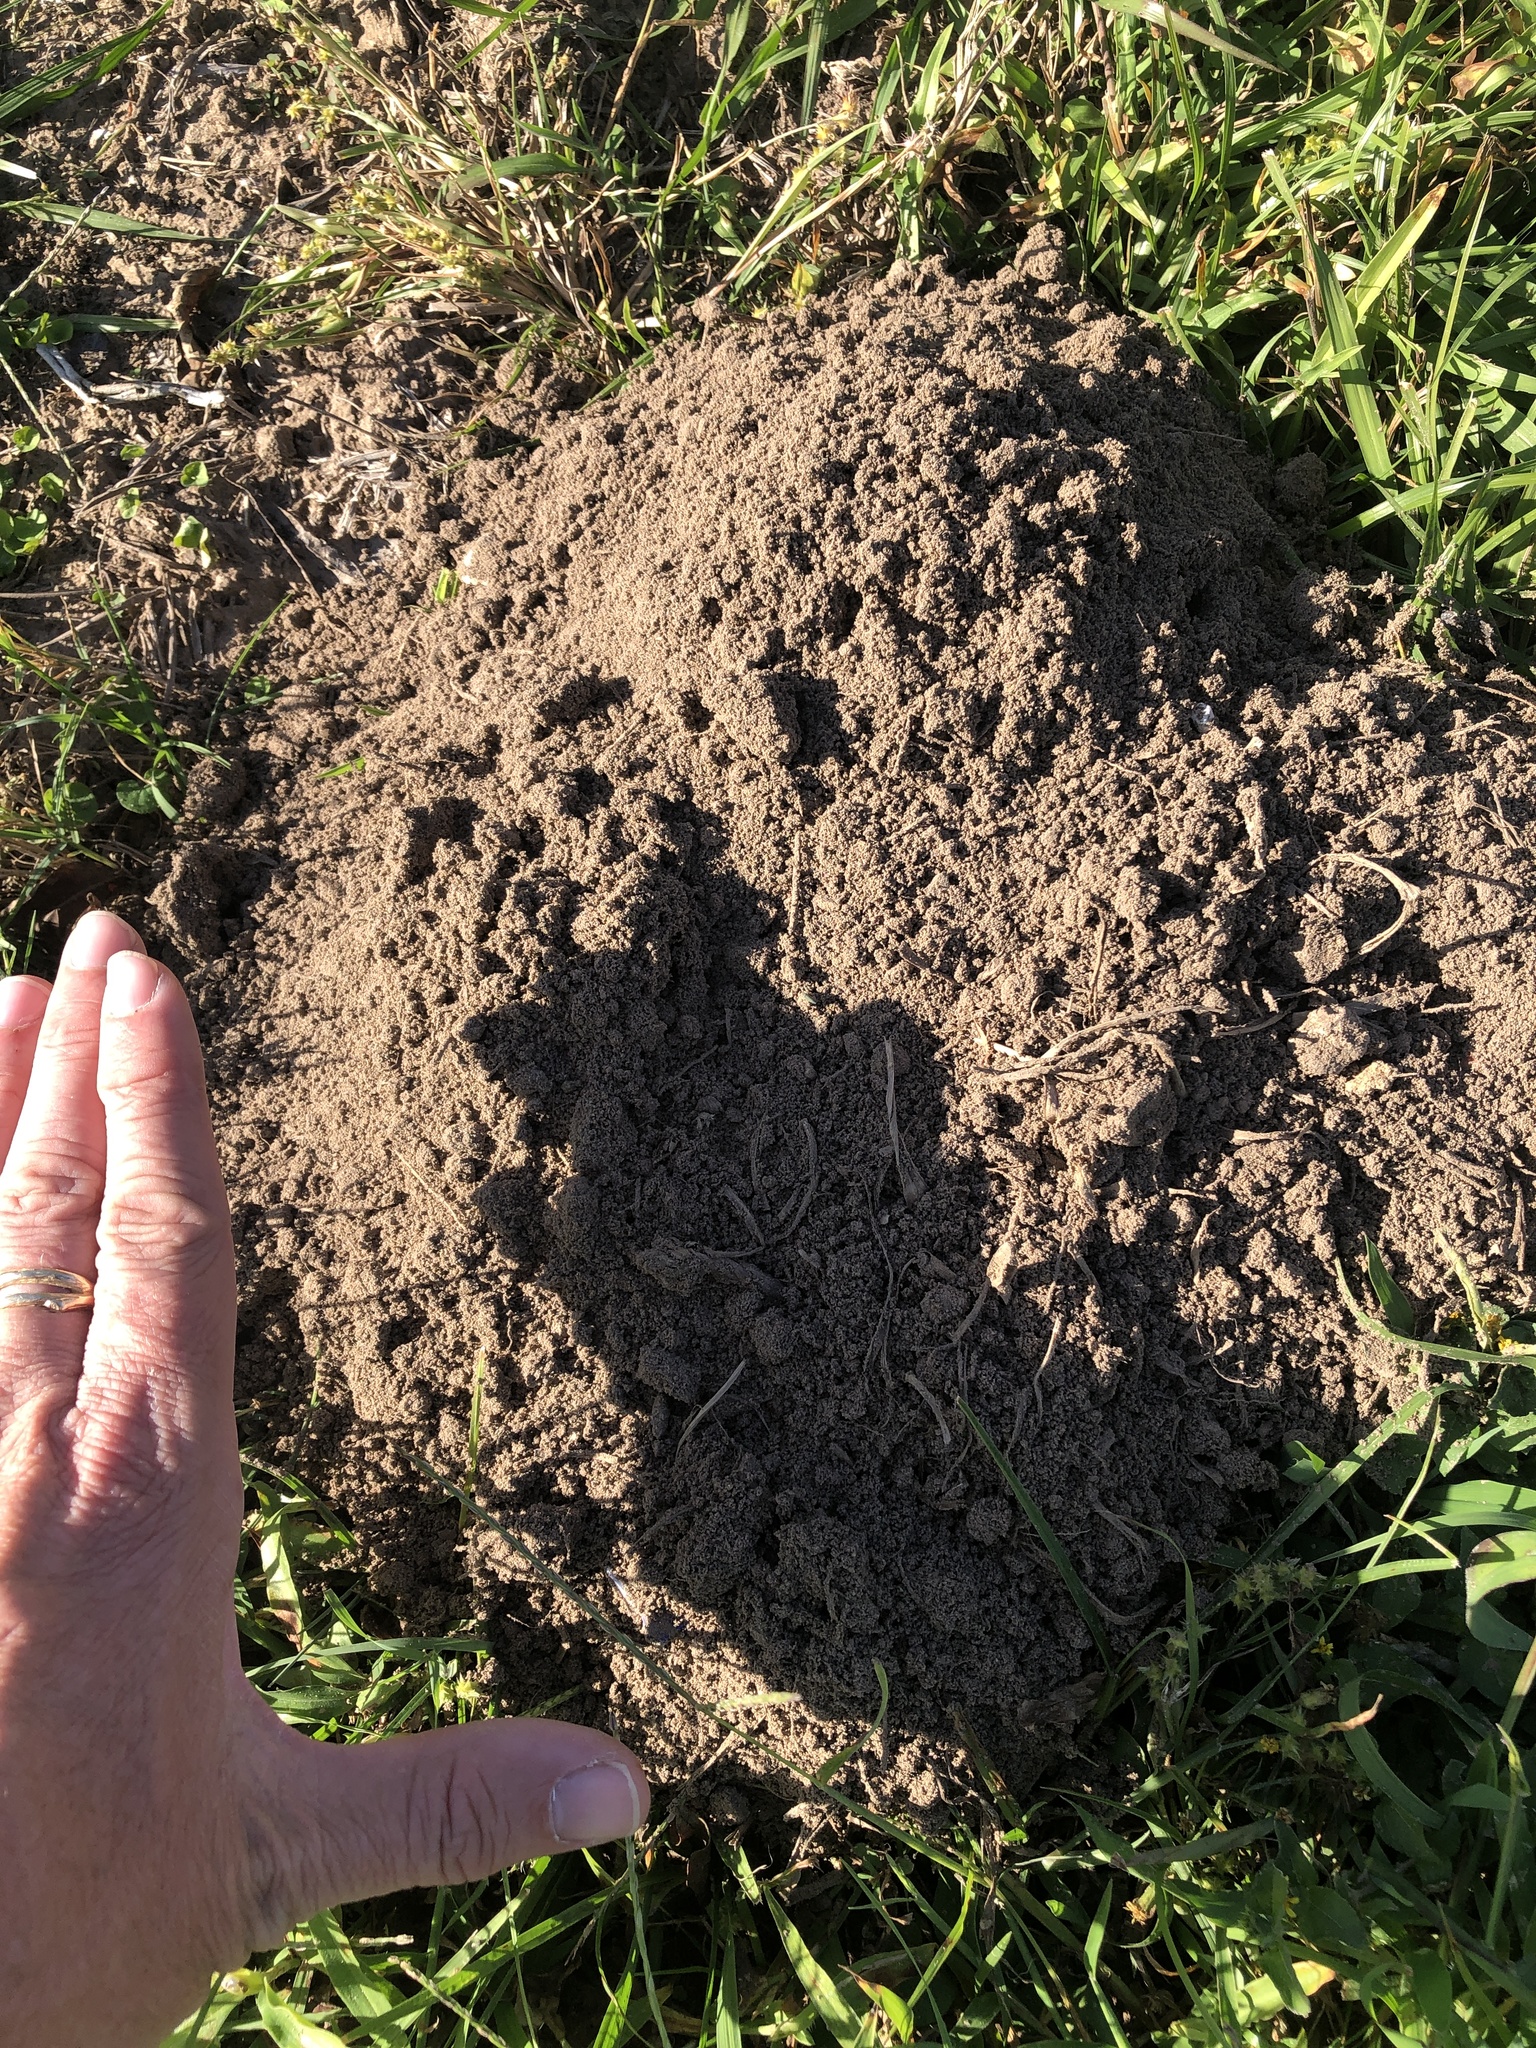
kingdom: Animalia
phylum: Chordata
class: Mammalia
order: Rodentia
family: Geomyidae
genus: Geomys
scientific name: Geomys attwateri
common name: Attwater's pocket gopher
